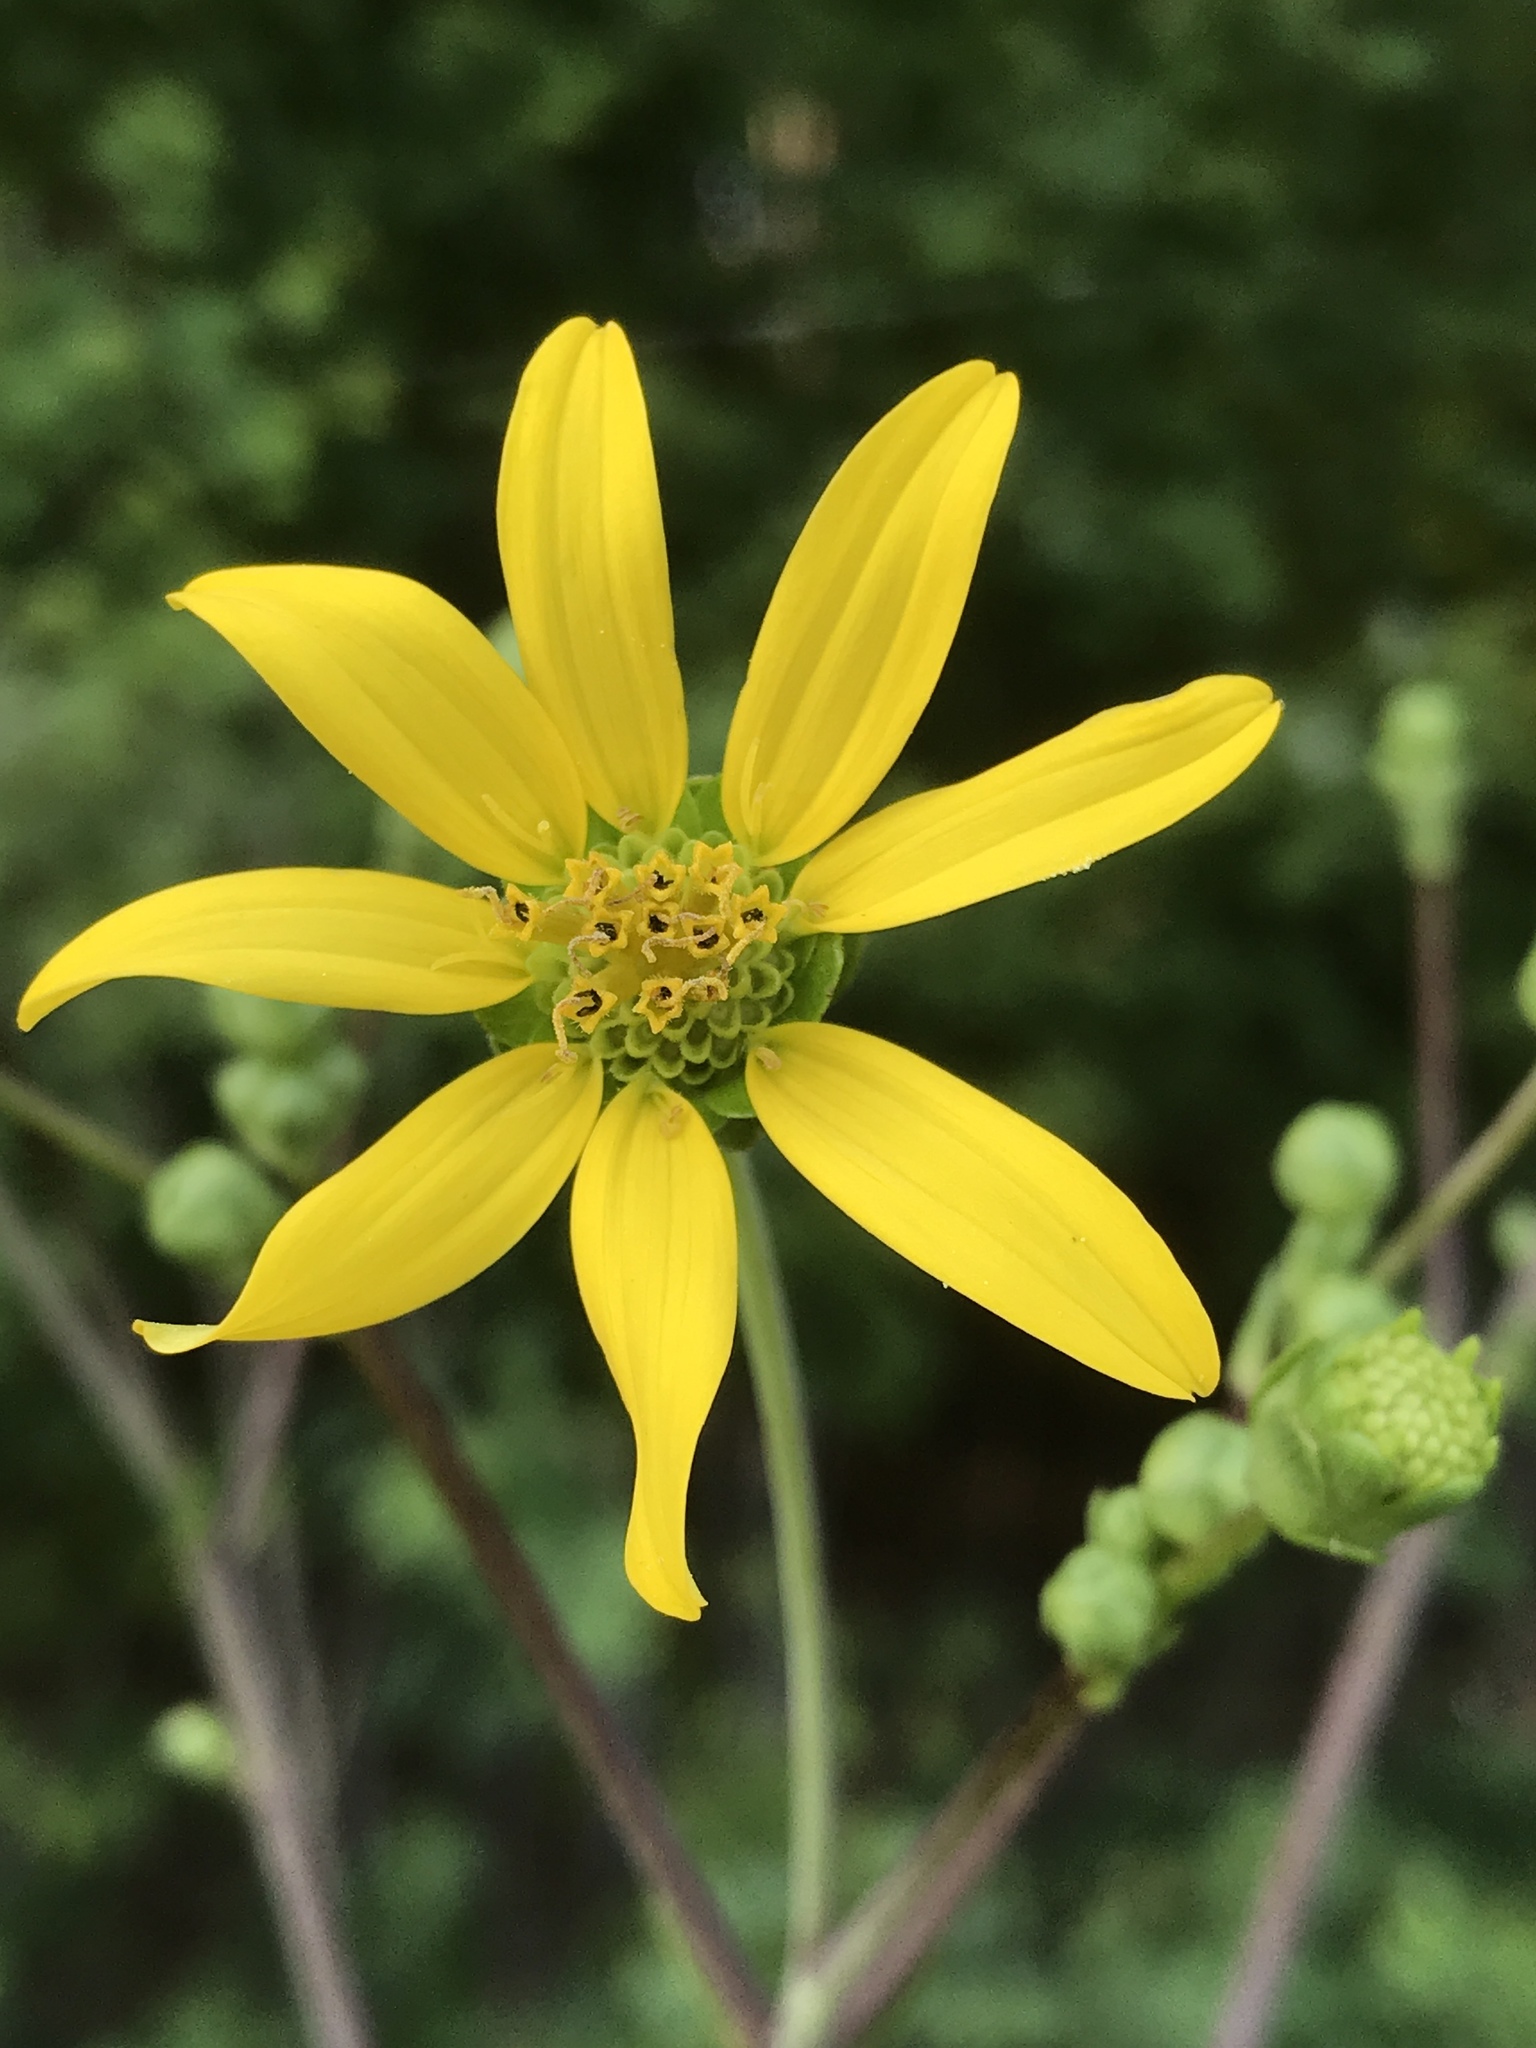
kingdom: Plantae
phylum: Tracheophyta
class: Magnoliopsida
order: Asterales
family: Asteraceae
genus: Silphium
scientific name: Silphium compositum
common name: Lesser basal-leaf rosinweed
